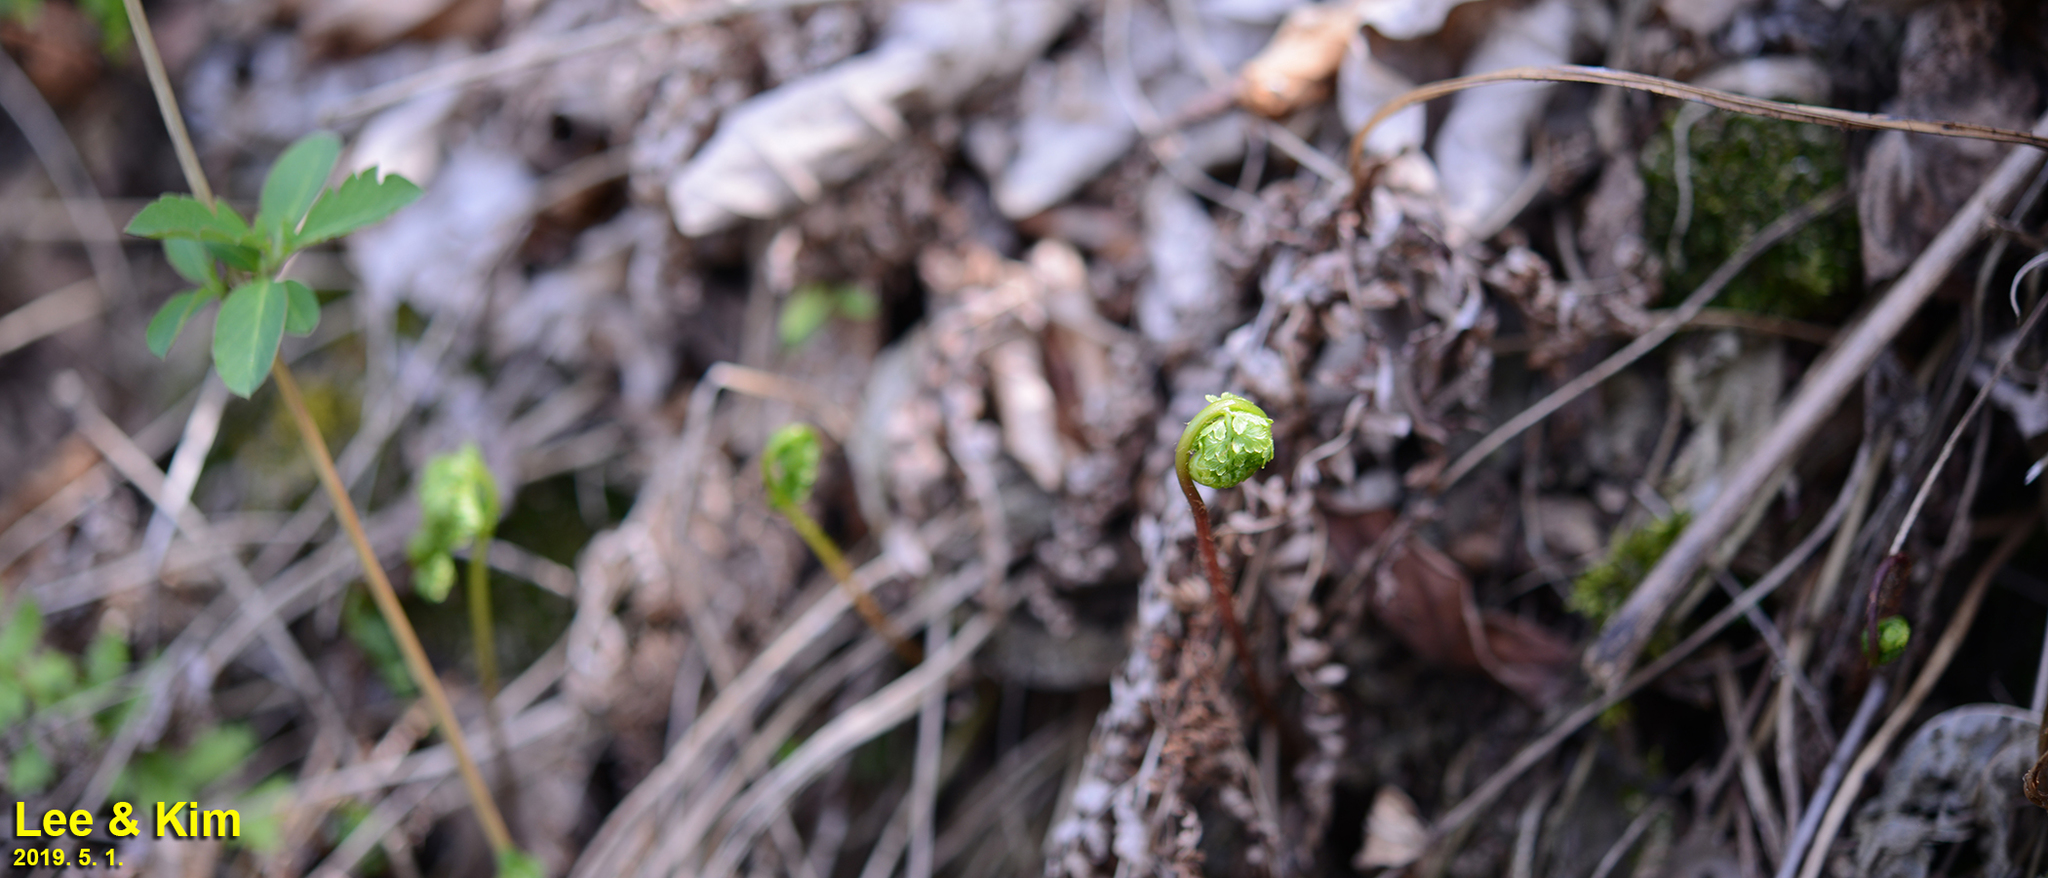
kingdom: Plantae
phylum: Tracheophyta
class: Polypodiopsida
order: Osmundales
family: Osmundaceae
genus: Osmunda
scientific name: Osmunda japonica
